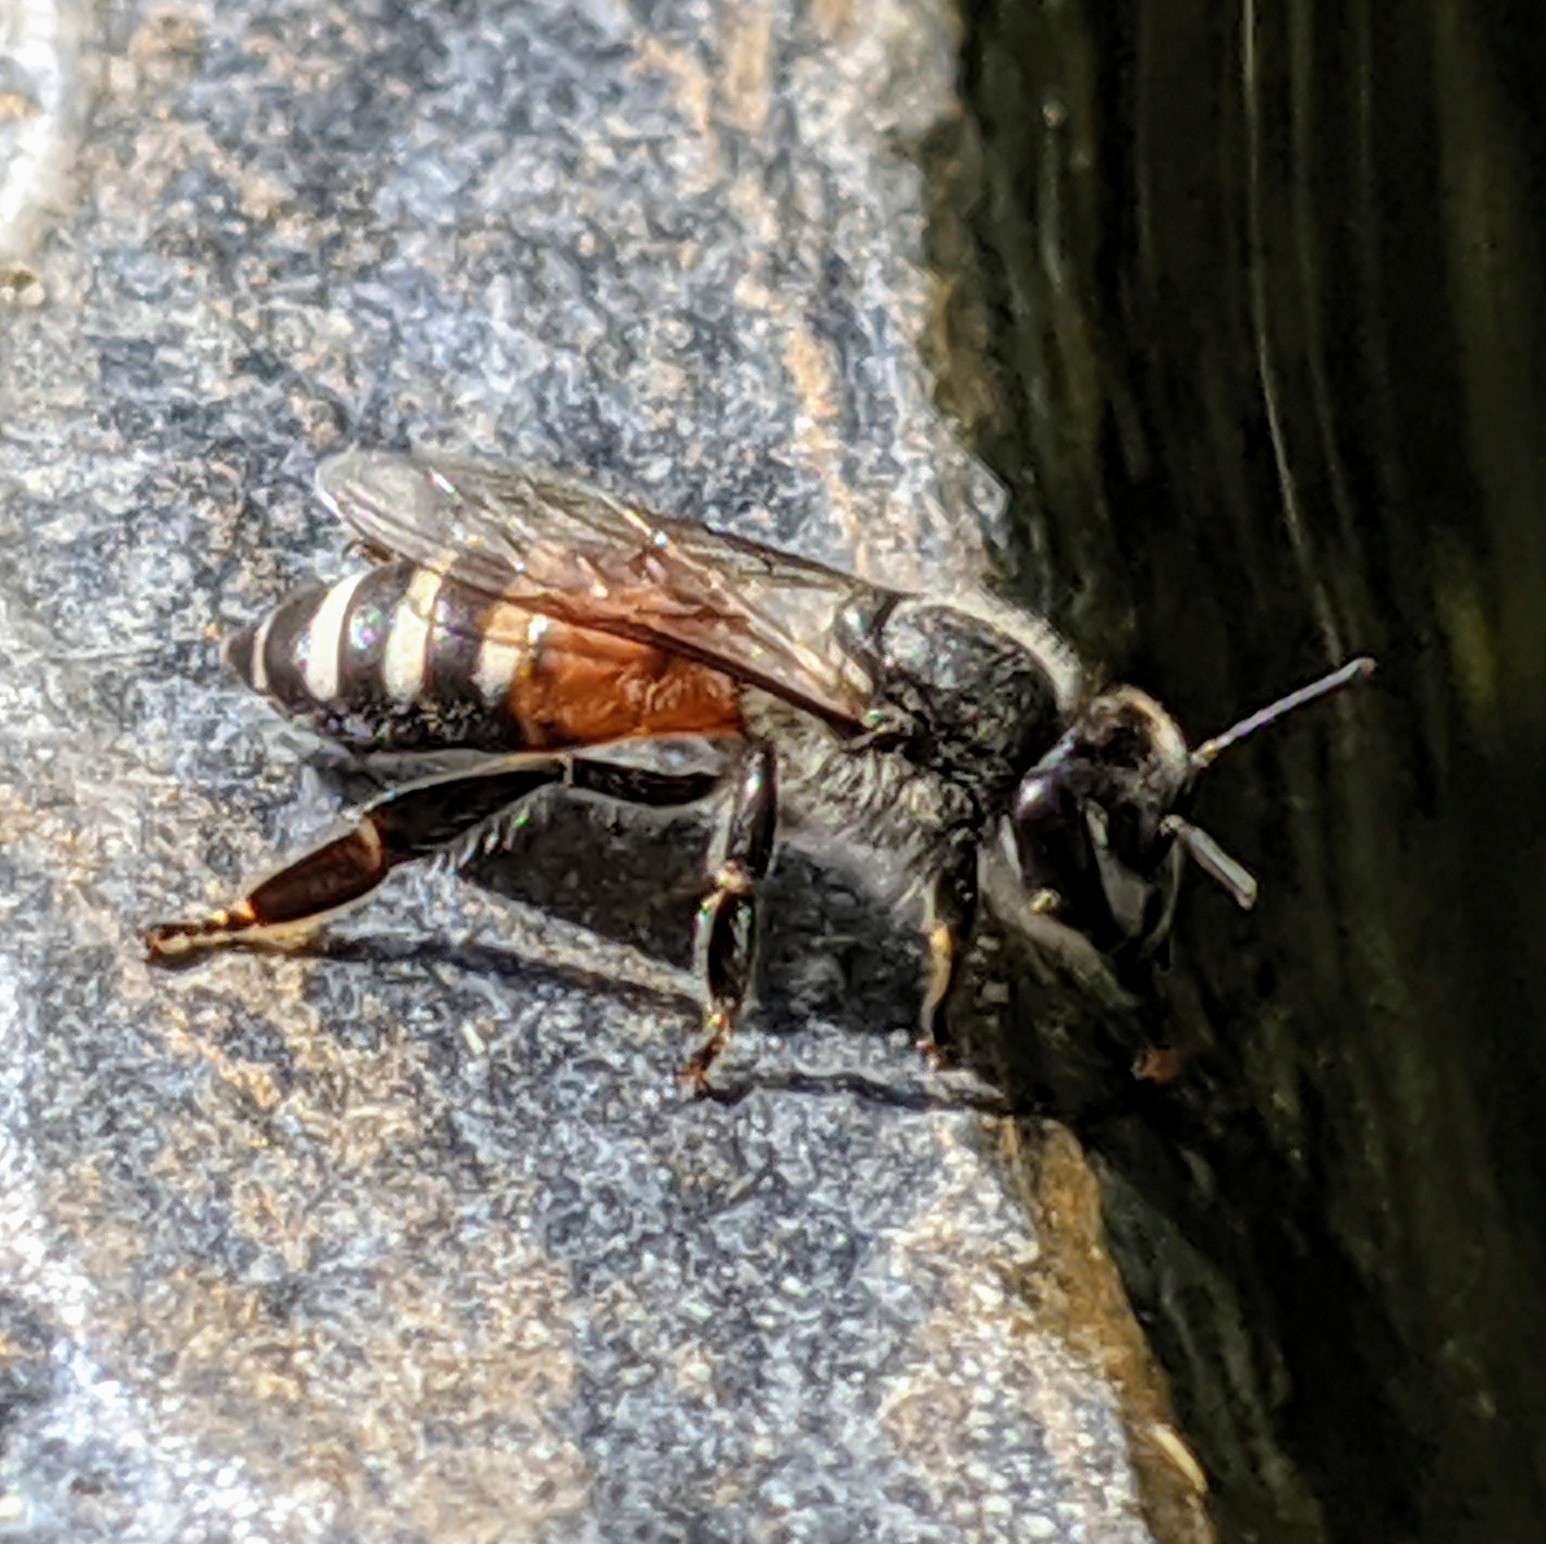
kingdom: Animalia
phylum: Arthropoda
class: Insecta
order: Hymenoptera
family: Apidae
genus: Apis
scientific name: Apis florea
